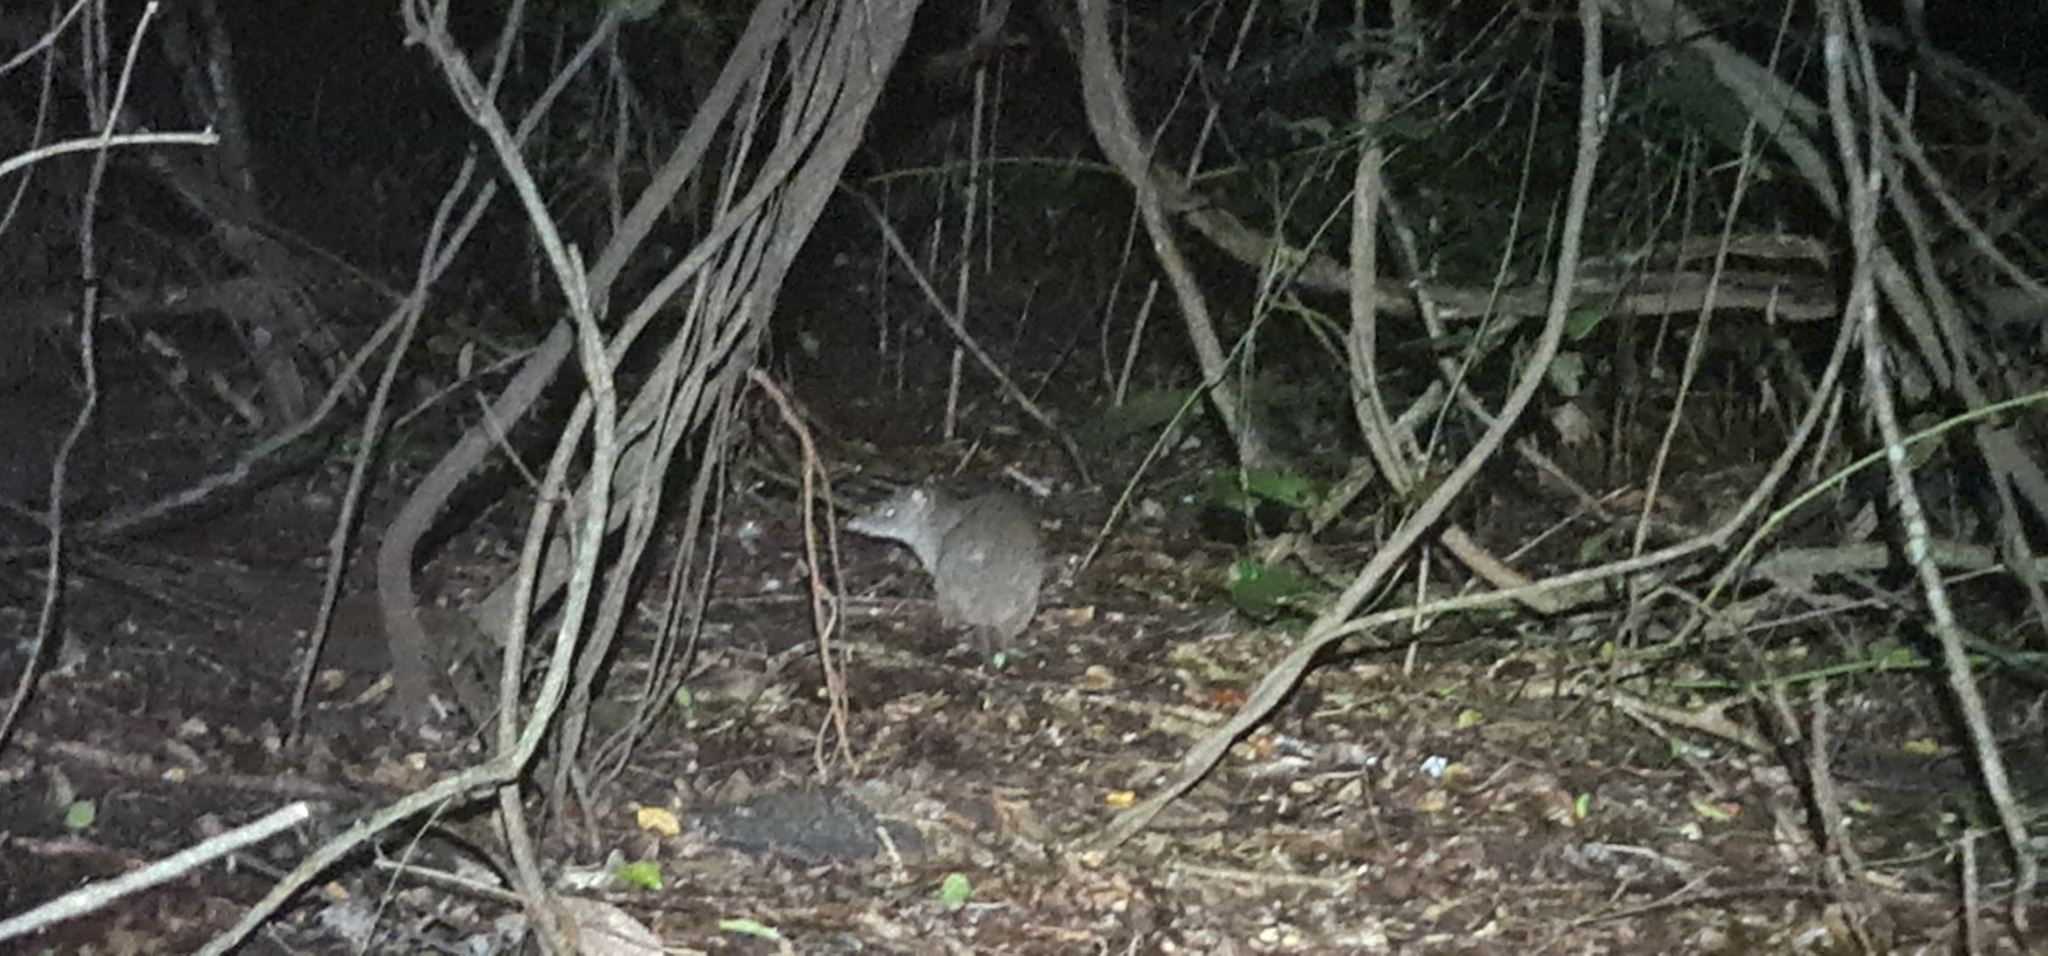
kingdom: Animalia
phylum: Chordata
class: Mammalia
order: Peramelemorphia
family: Peramelidae
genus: Perameles
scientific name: Perameles pallescens
